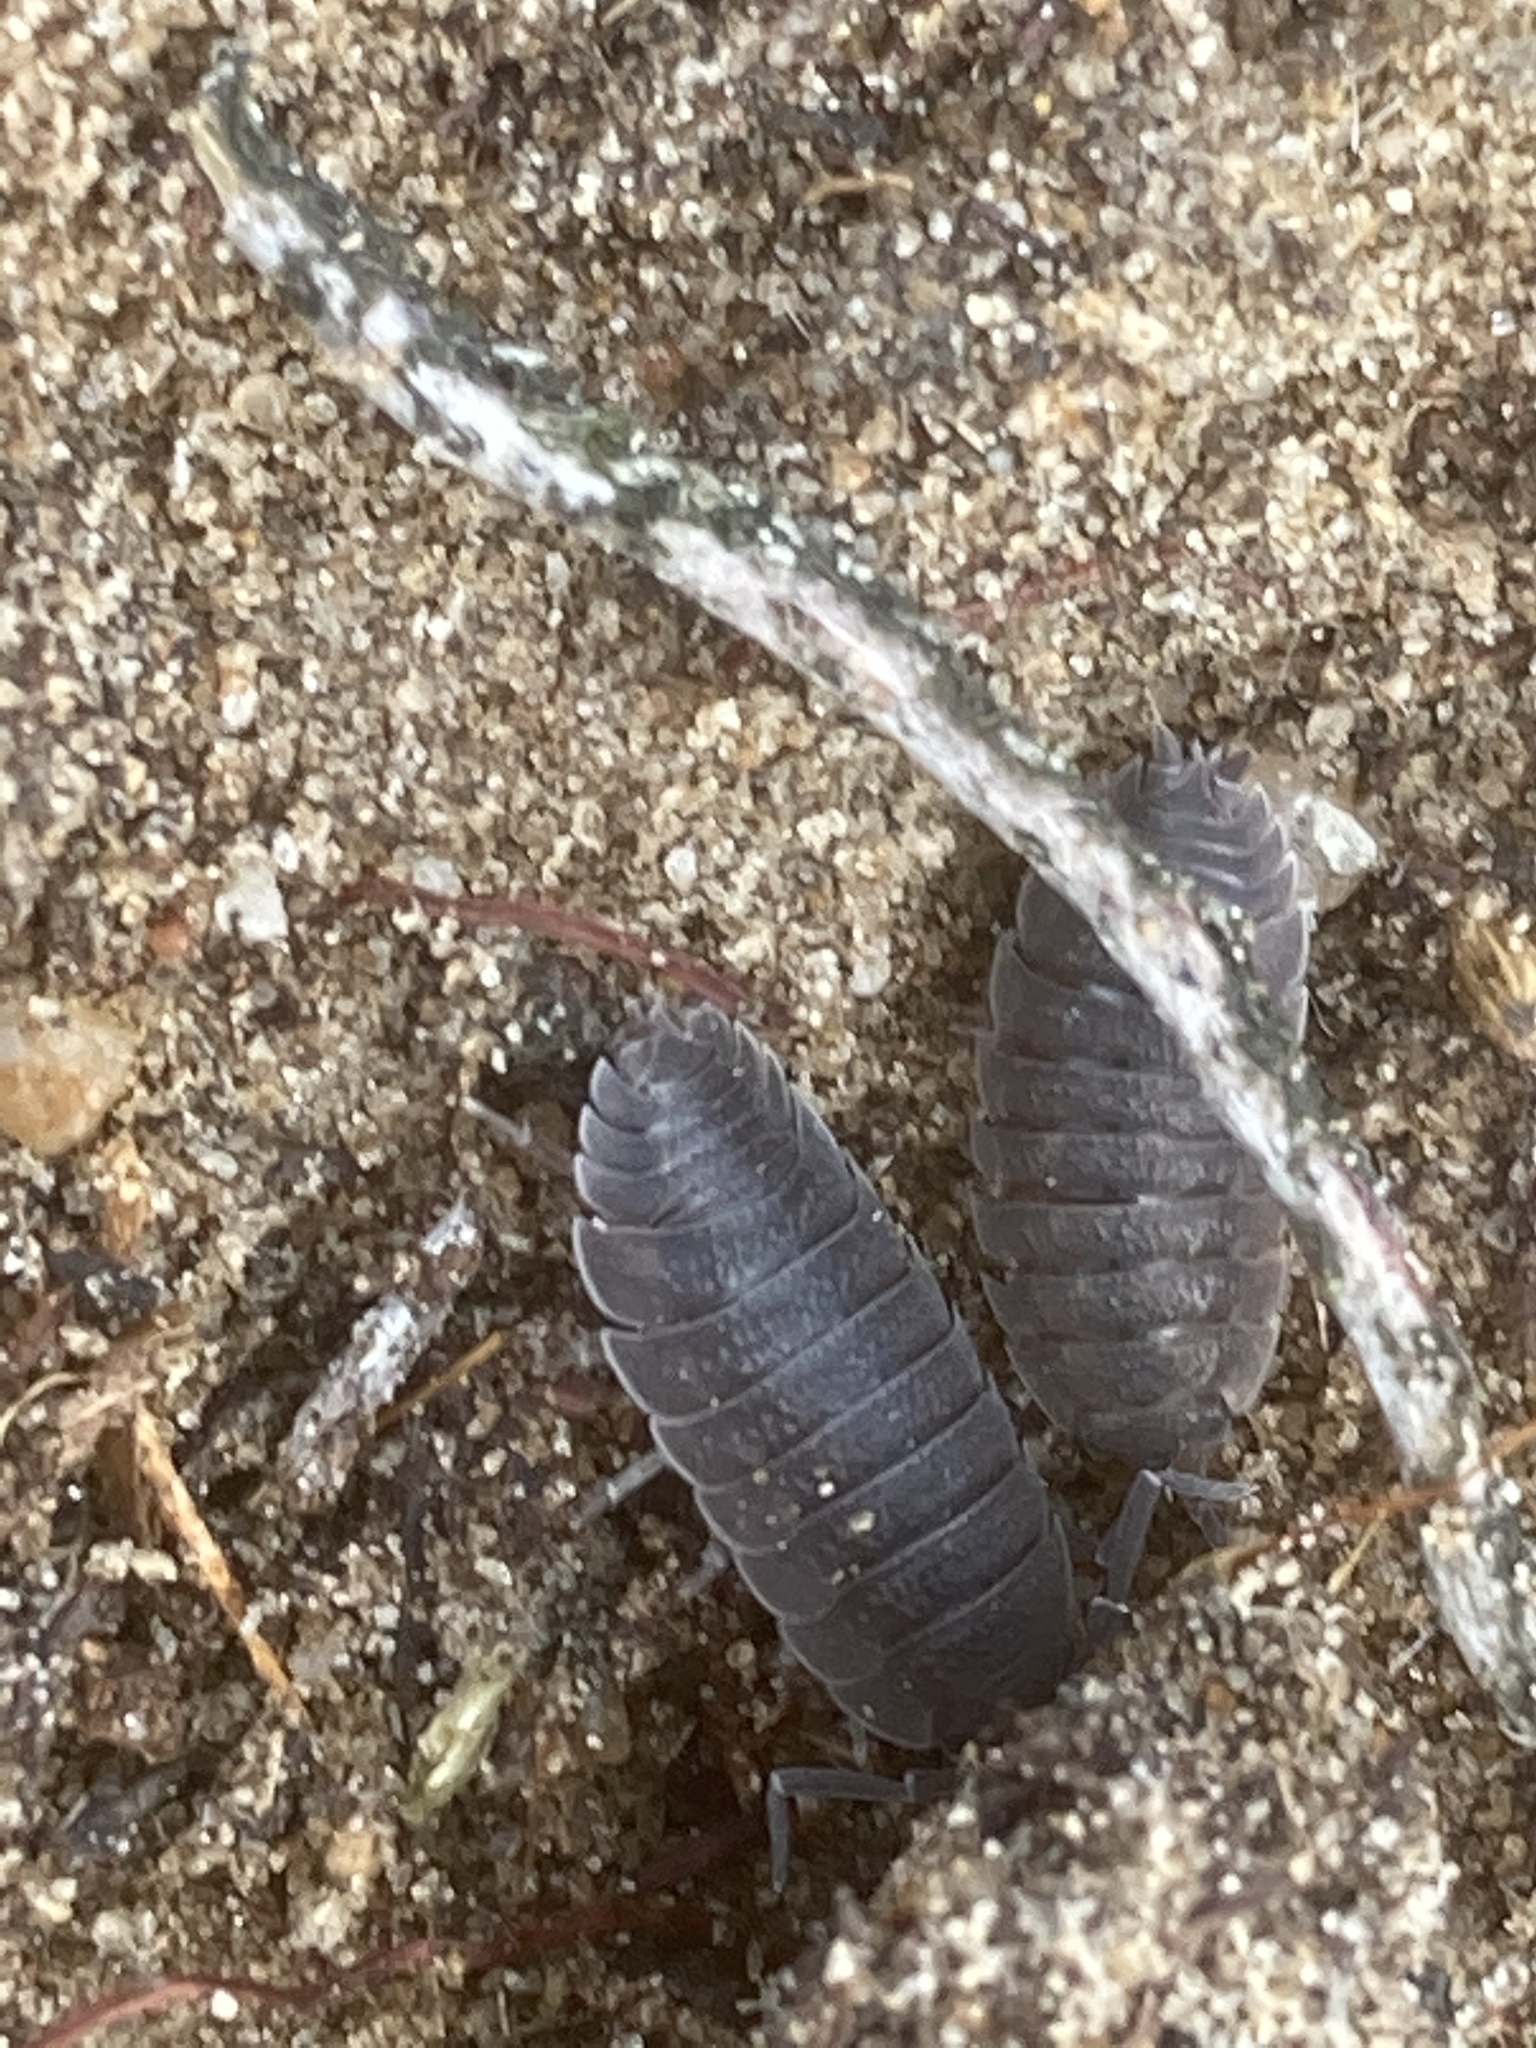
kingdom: Animalia
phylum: Arthropoda
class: Malacostraca
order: Isopoda
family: Porcellionidae
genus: Porcellio
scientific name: Porcellio scaber
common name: Common rough woodlouse
